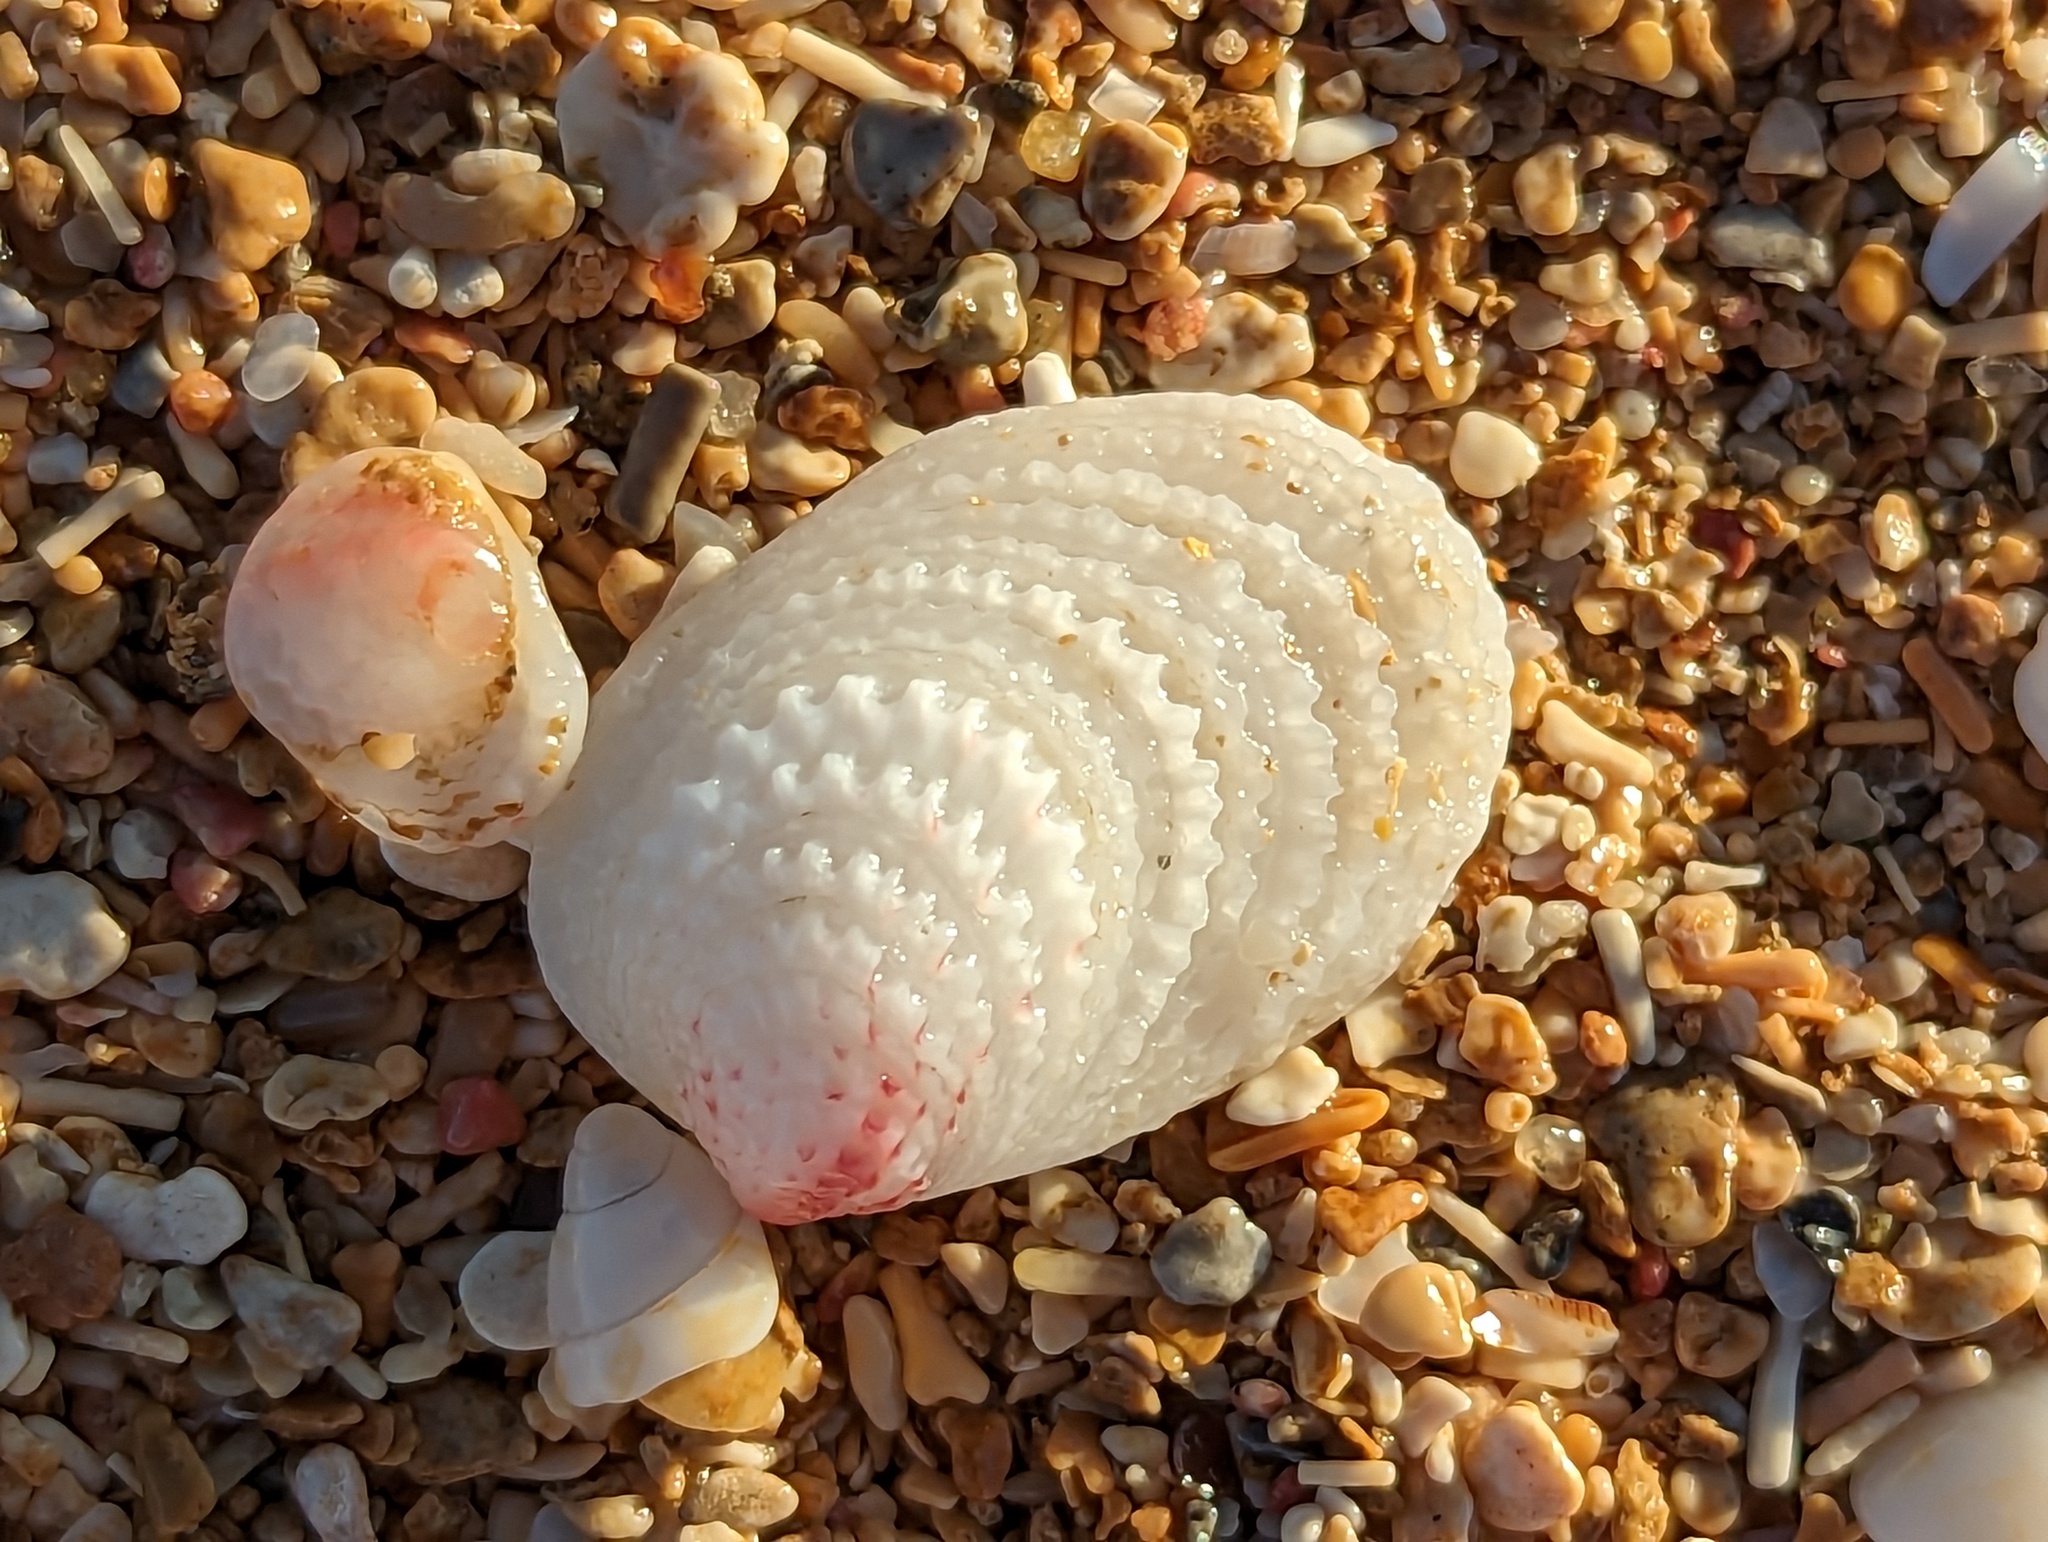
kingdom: Animalia
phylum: Mollusca
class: Bivalvia
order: Venerida
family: Chamidae
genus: Chama
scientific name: Chama florida
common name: Blushed jewelbox
